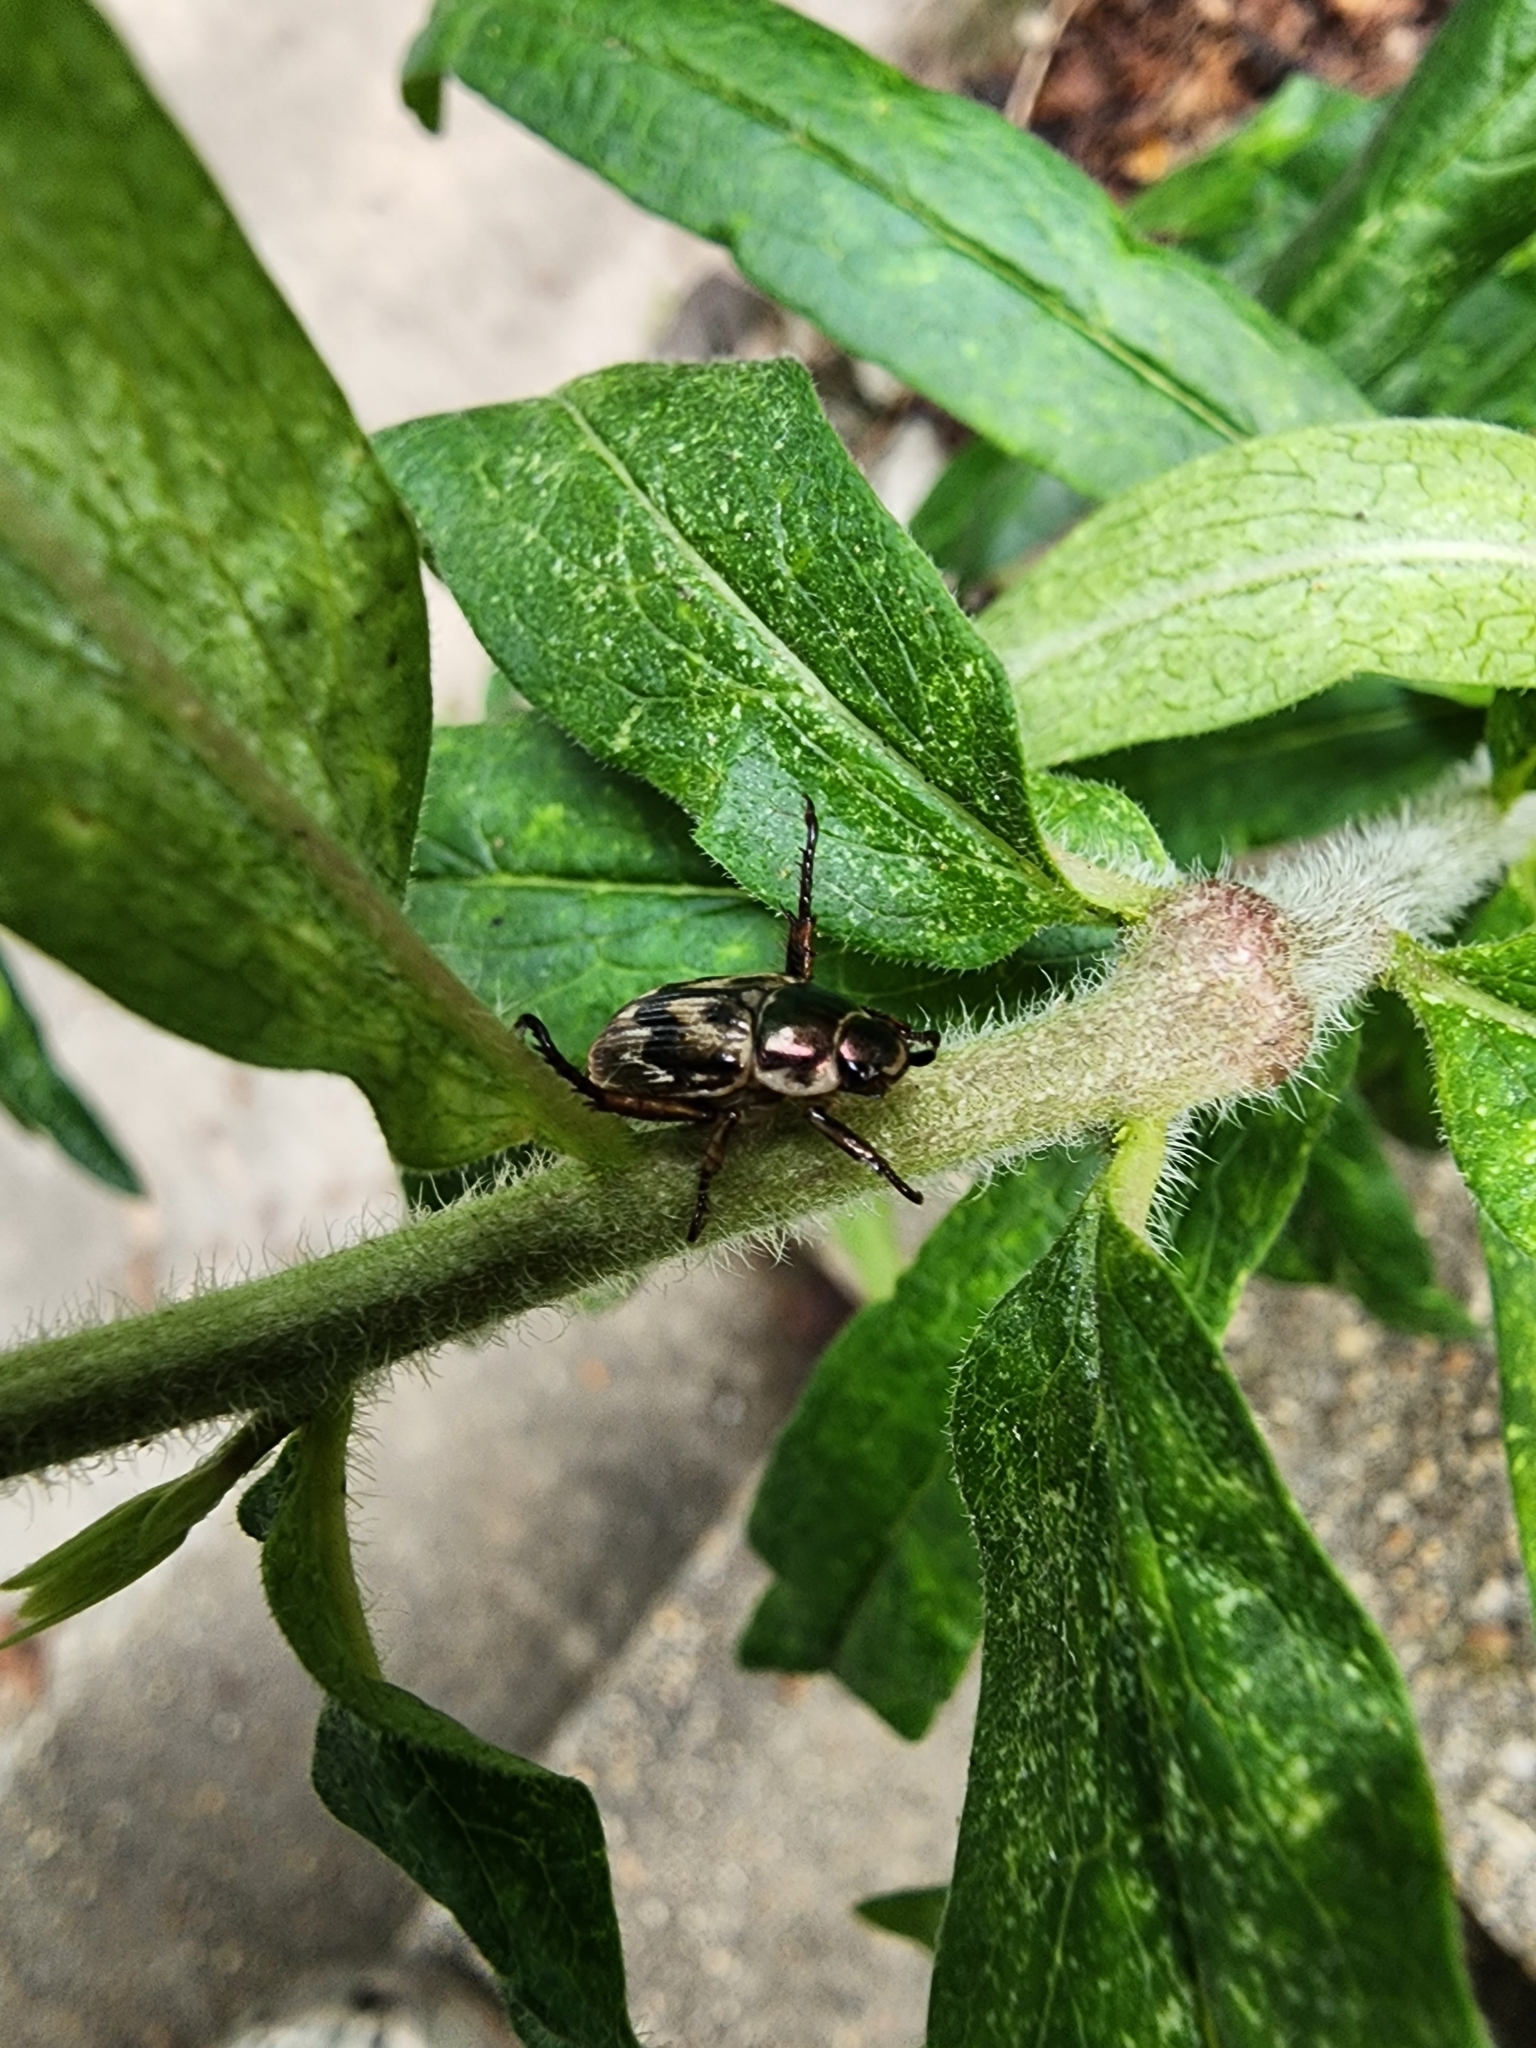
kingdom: Animalia
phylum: Arthropoda
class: Insecta
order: Coleoptera
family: Scarabaeidae
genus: Exomala
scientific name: Exomala orientalis
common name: Oriental beetle
